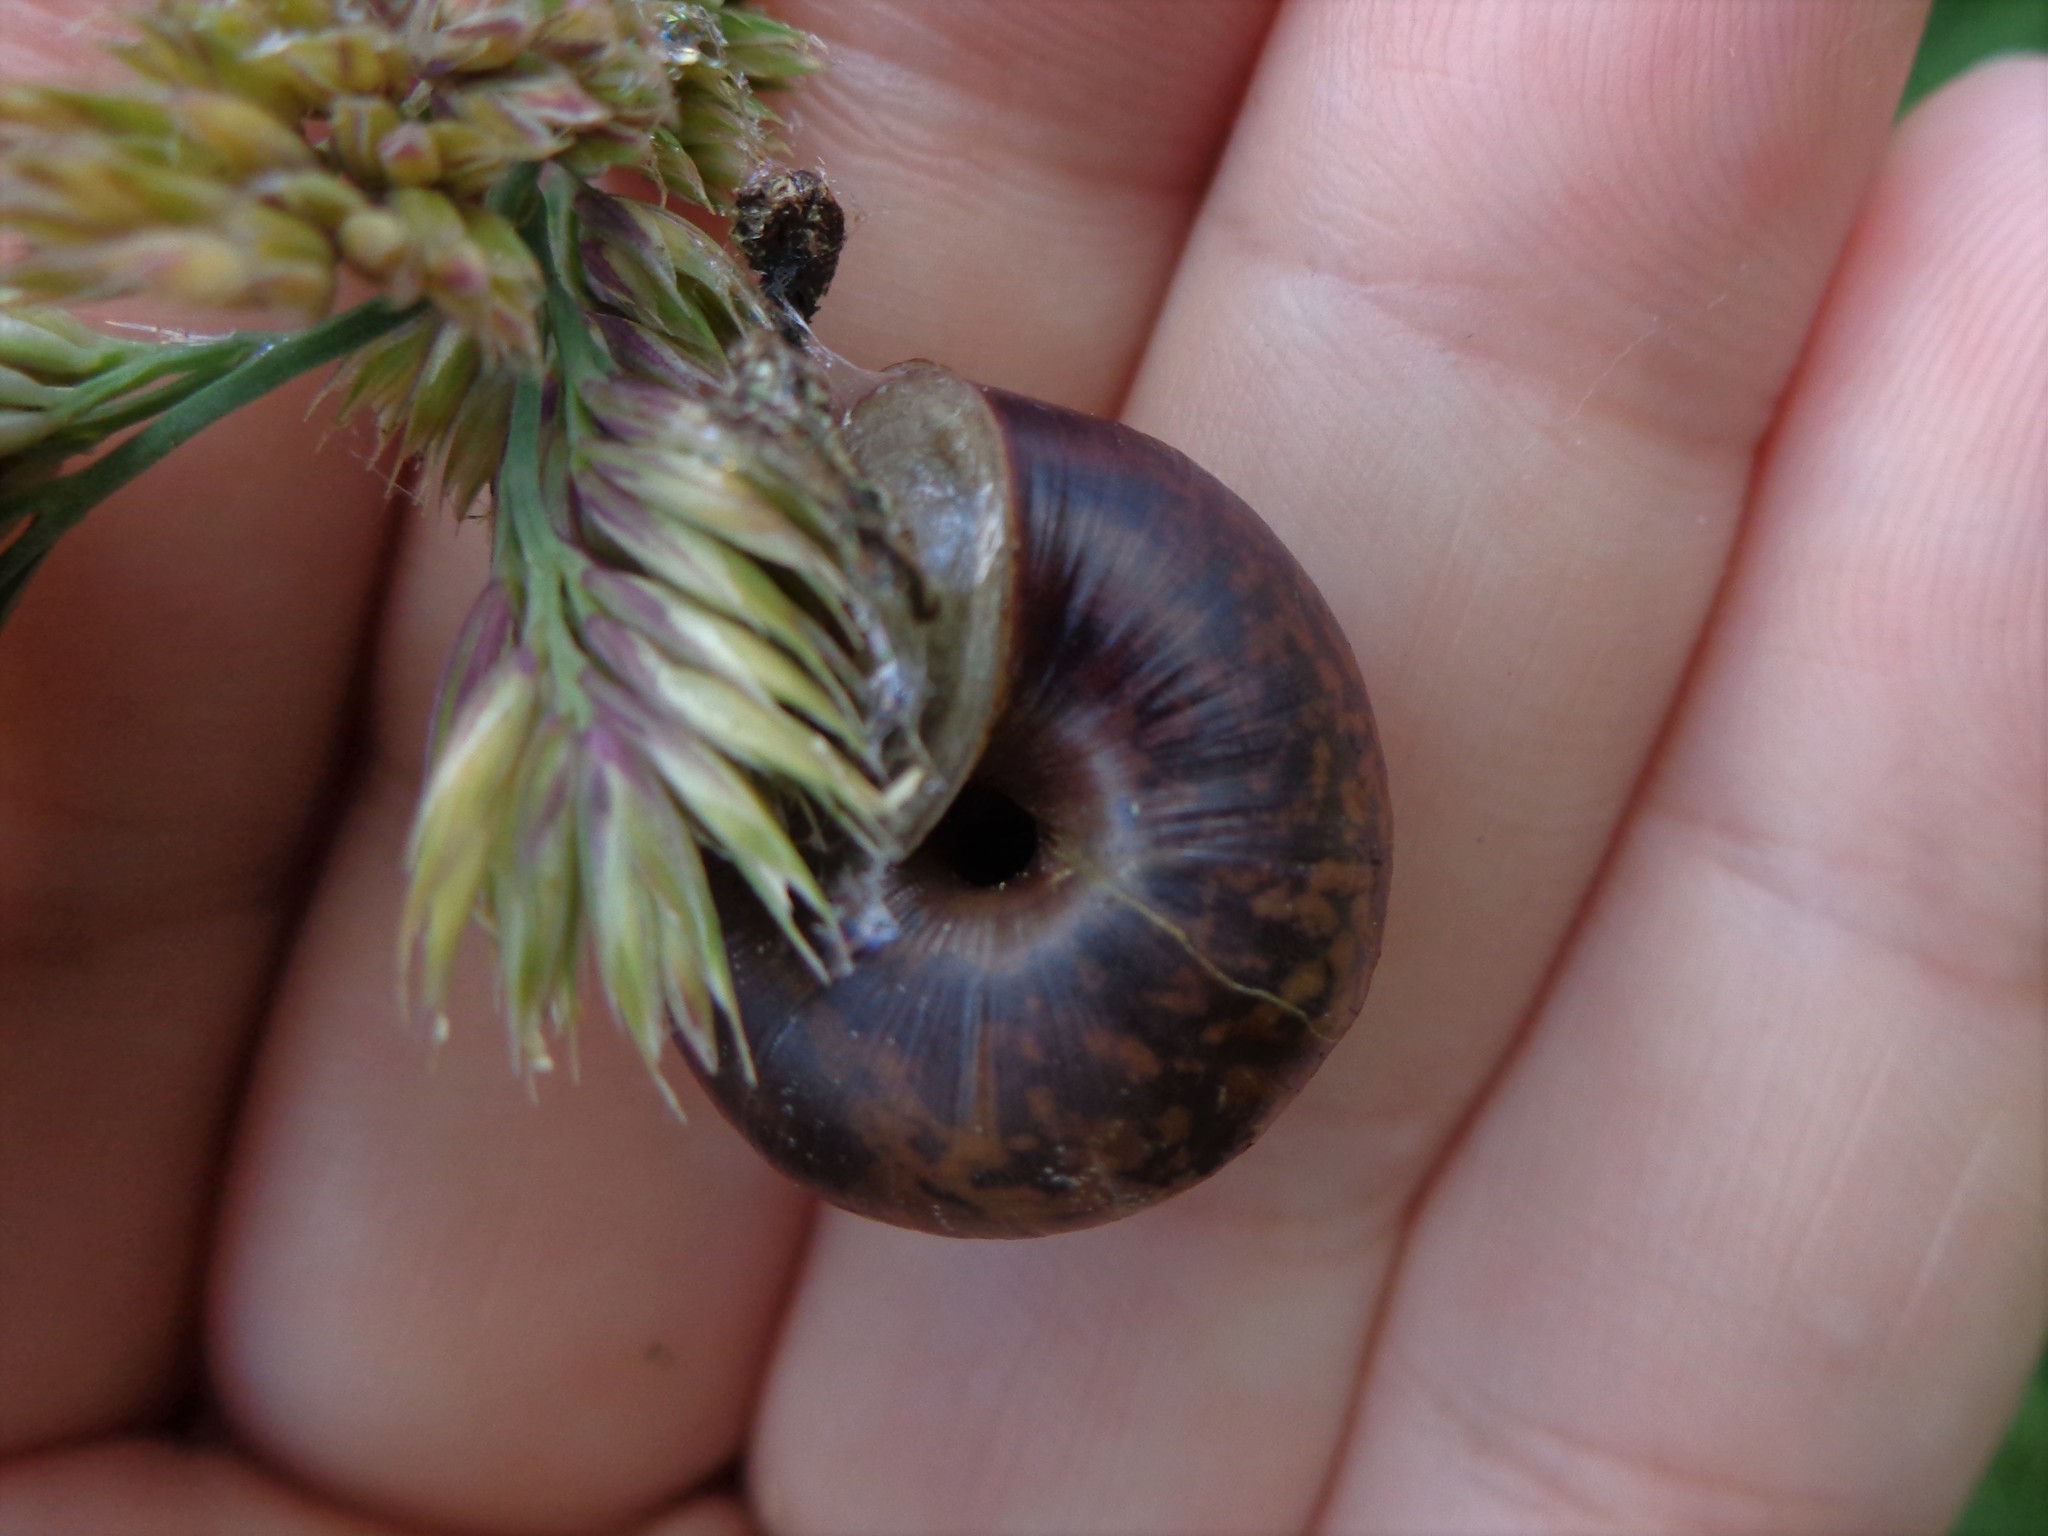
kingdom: Animalia
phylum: Mollusca
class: Gastropoda
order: Stylommatophora
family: Camaenidae
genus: Fruticicola
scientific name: Fruticicola fruticum
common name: Bush snail
